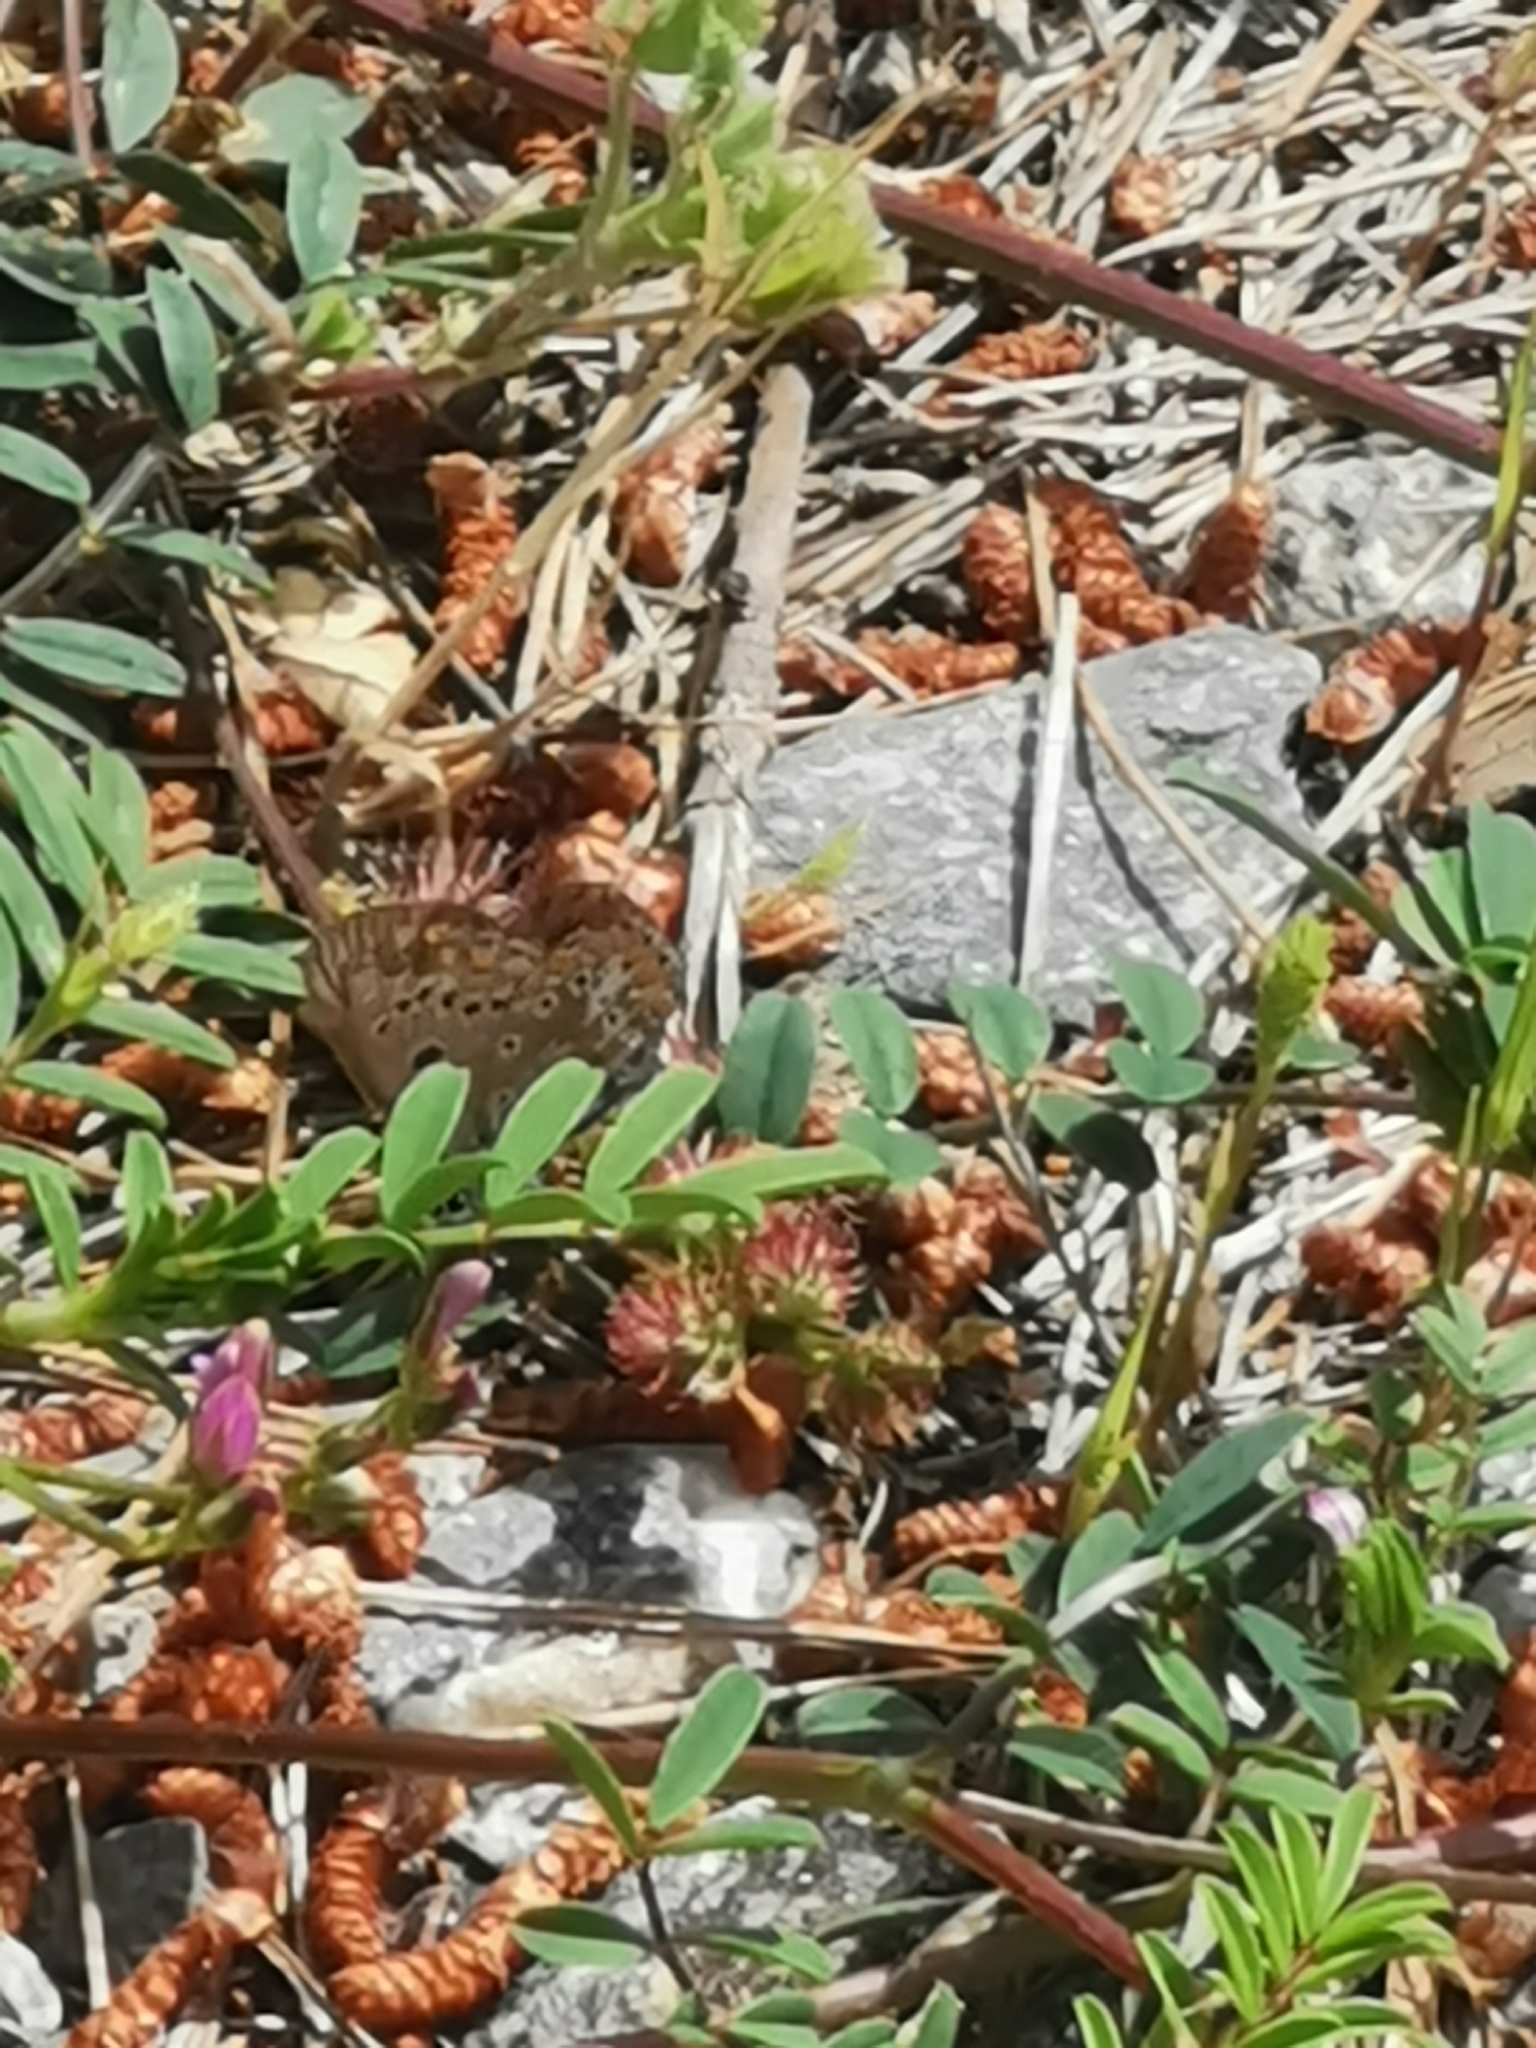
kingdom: Animalia
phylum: Arthropoda
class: Insecta
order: Lepidoptera
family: Lycaenidae
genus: Polyommatus
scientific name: Polyommatus thersites
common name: Chapman's blue
